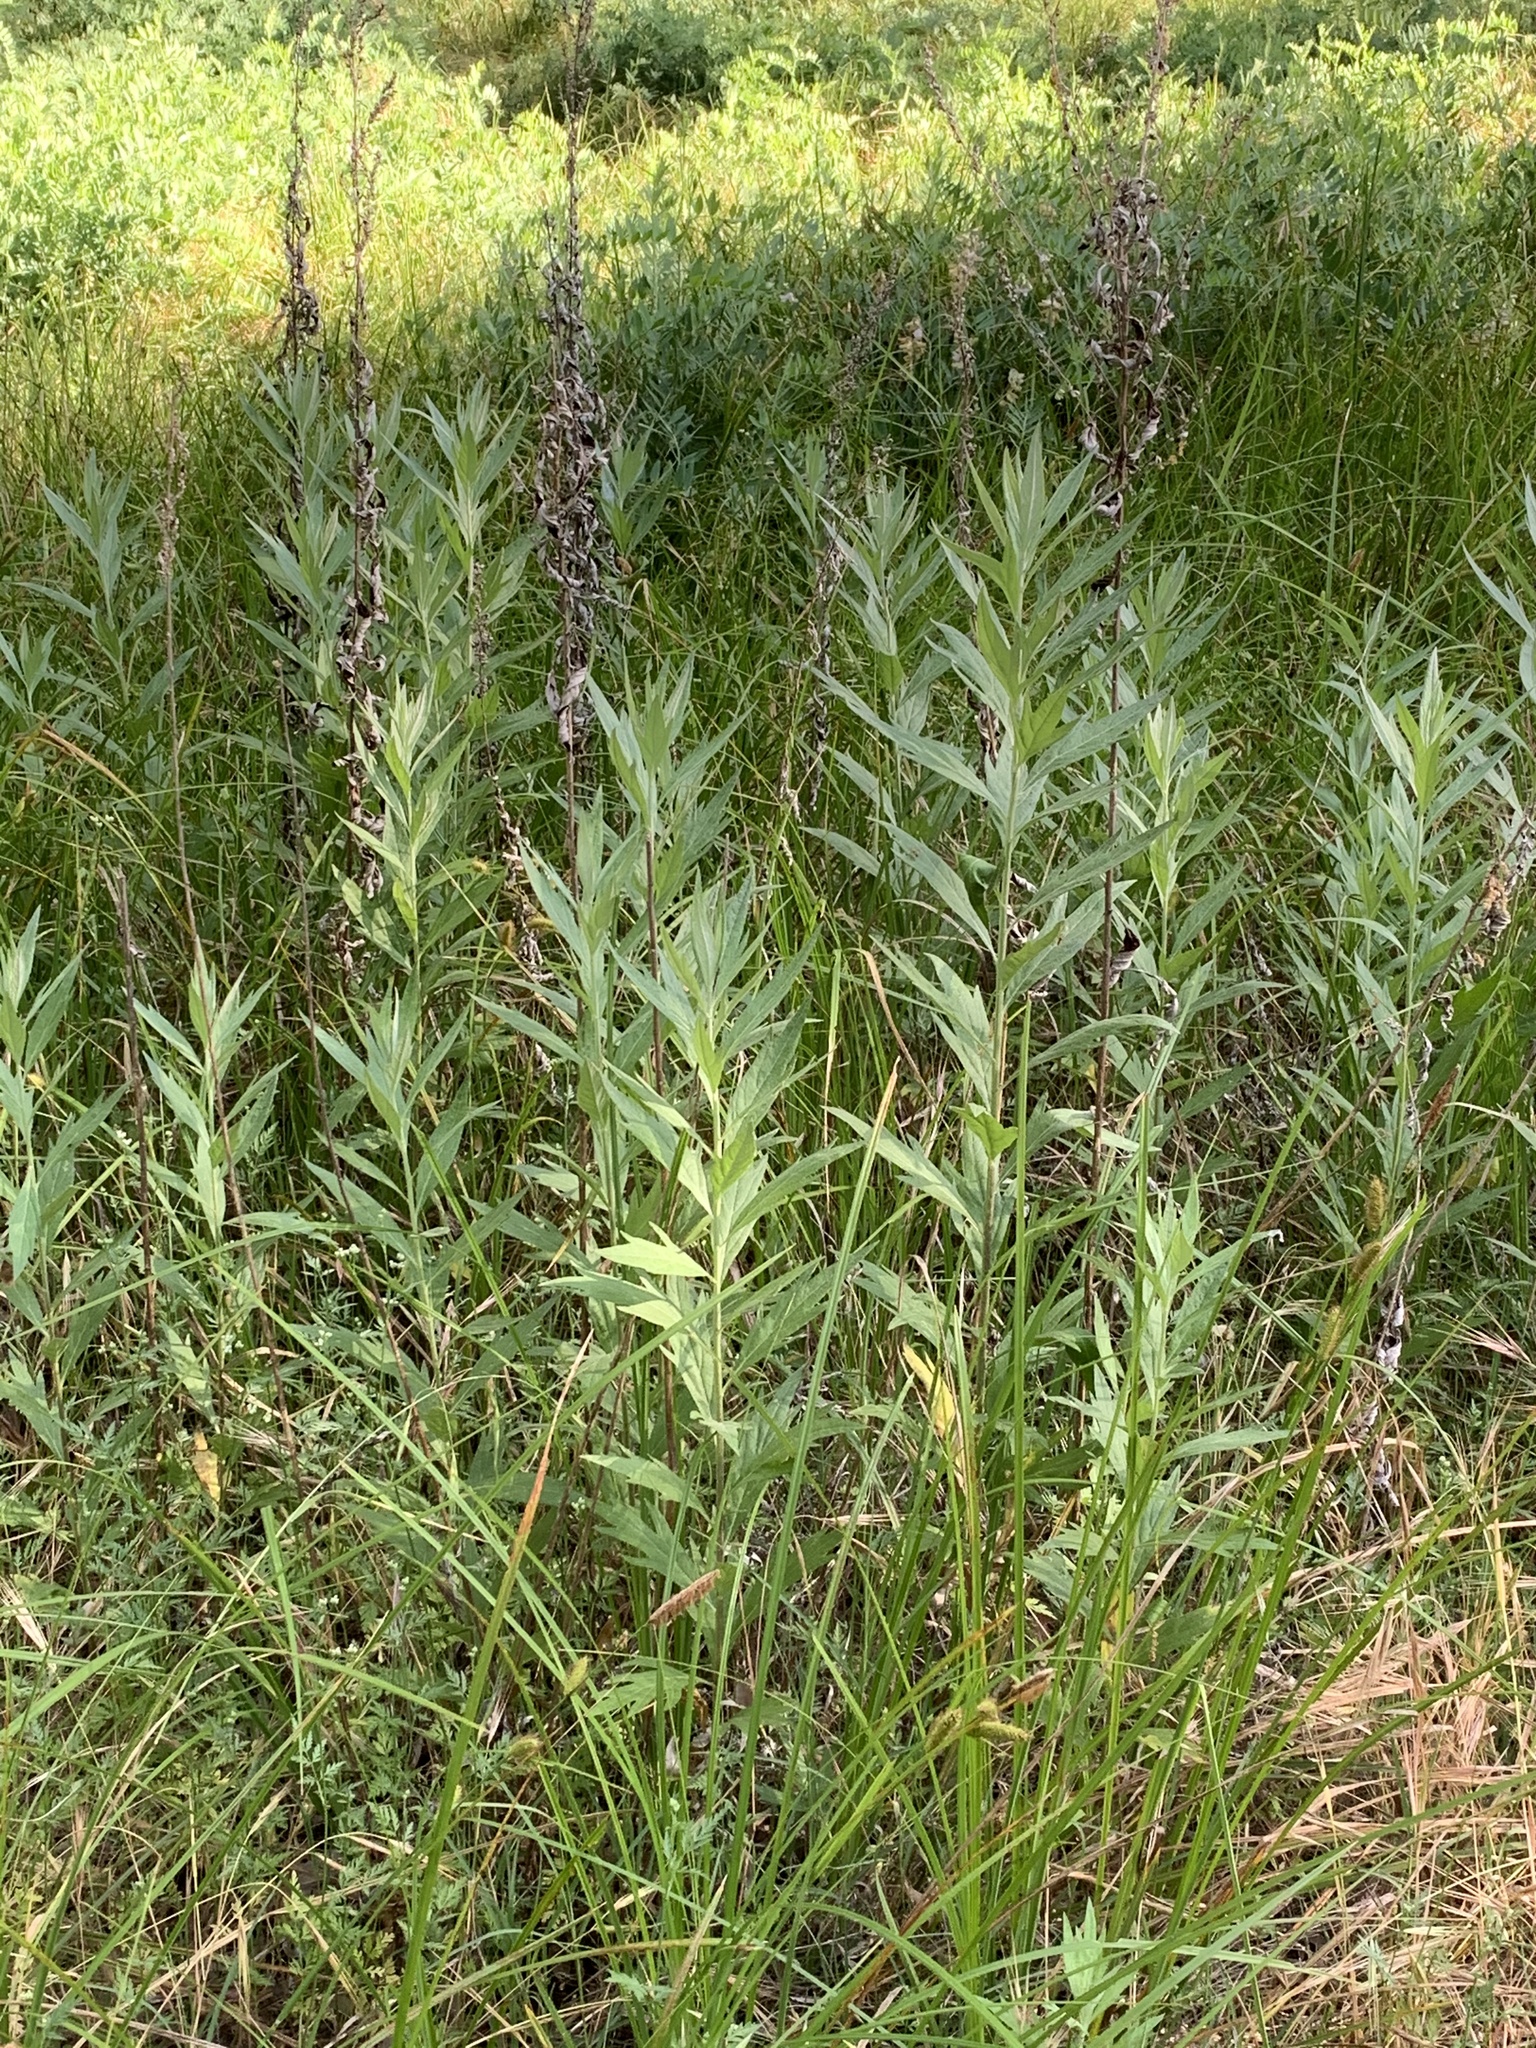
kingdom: Plantae
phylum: Tracheophyta
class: Magnoliopsida
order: Asterales
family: Asteraceae
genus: Artemisia
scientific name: Artemisia douglasiana
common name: Northwest mugwort
